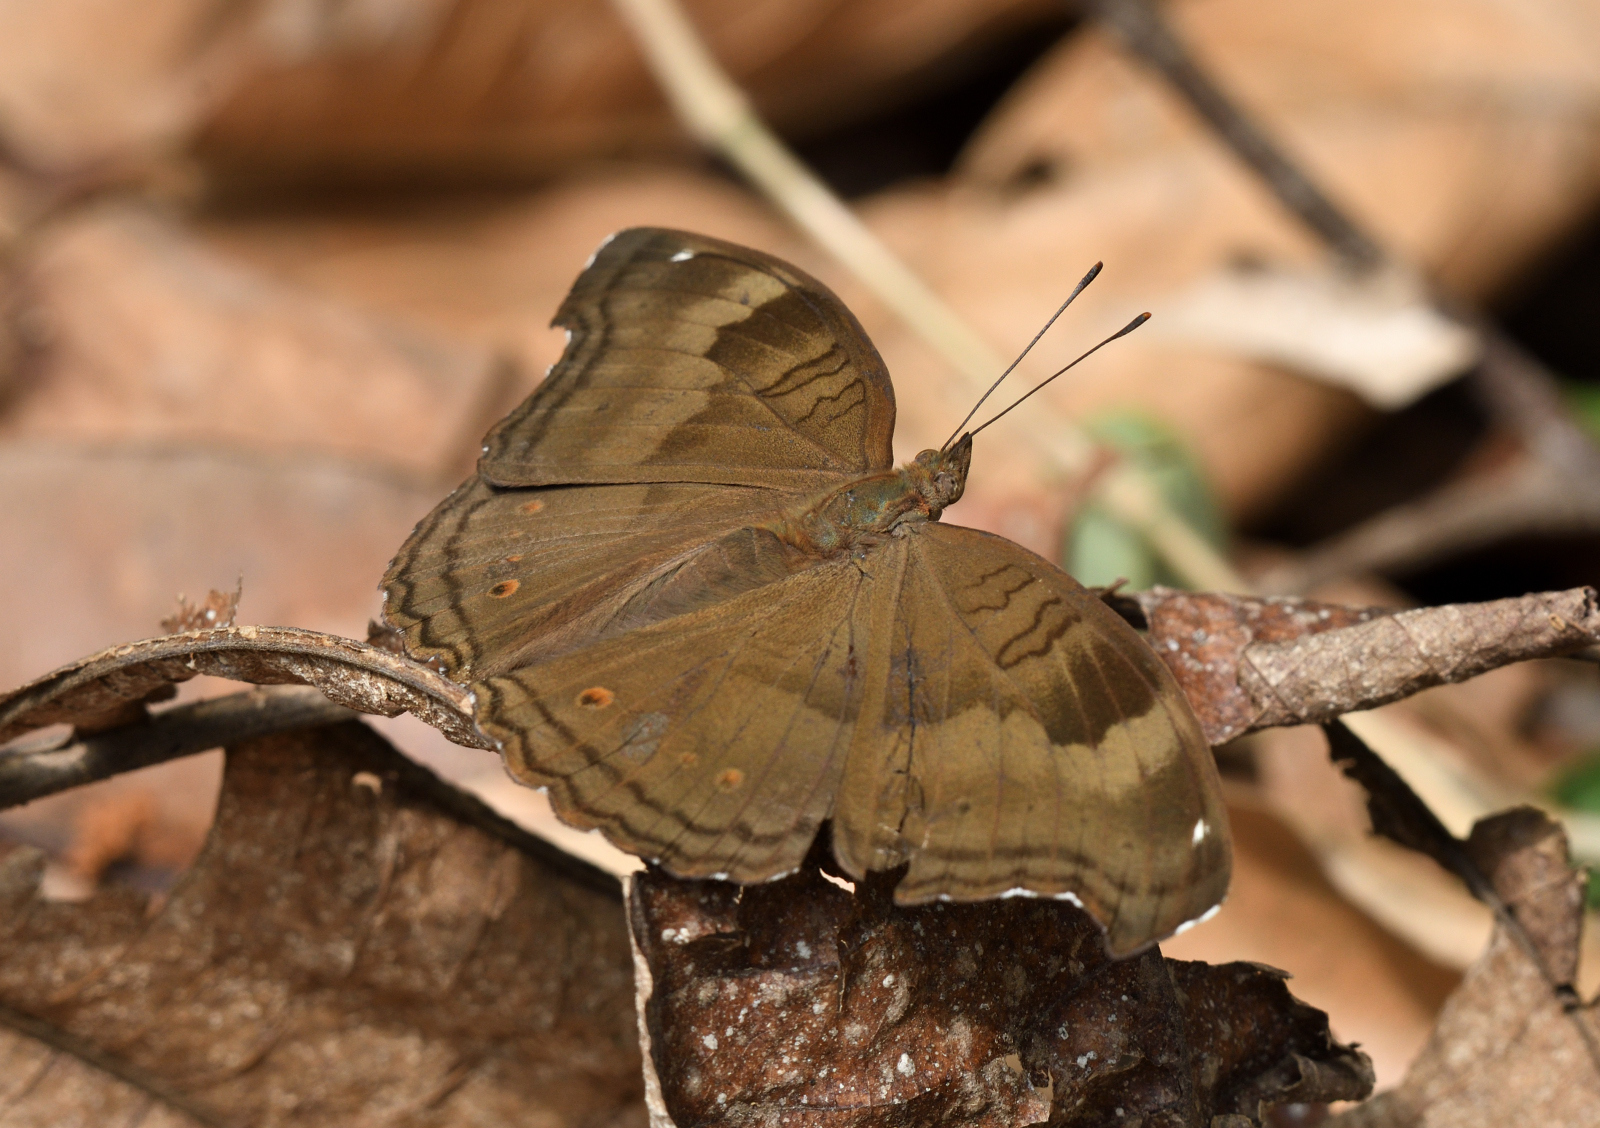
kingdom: Animalia
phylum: Arthropoda
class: Insecta
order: Lepidoptera
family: Nymphalidae
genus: Junonia
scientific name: Junonia iphita
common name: Chocolate pansy
